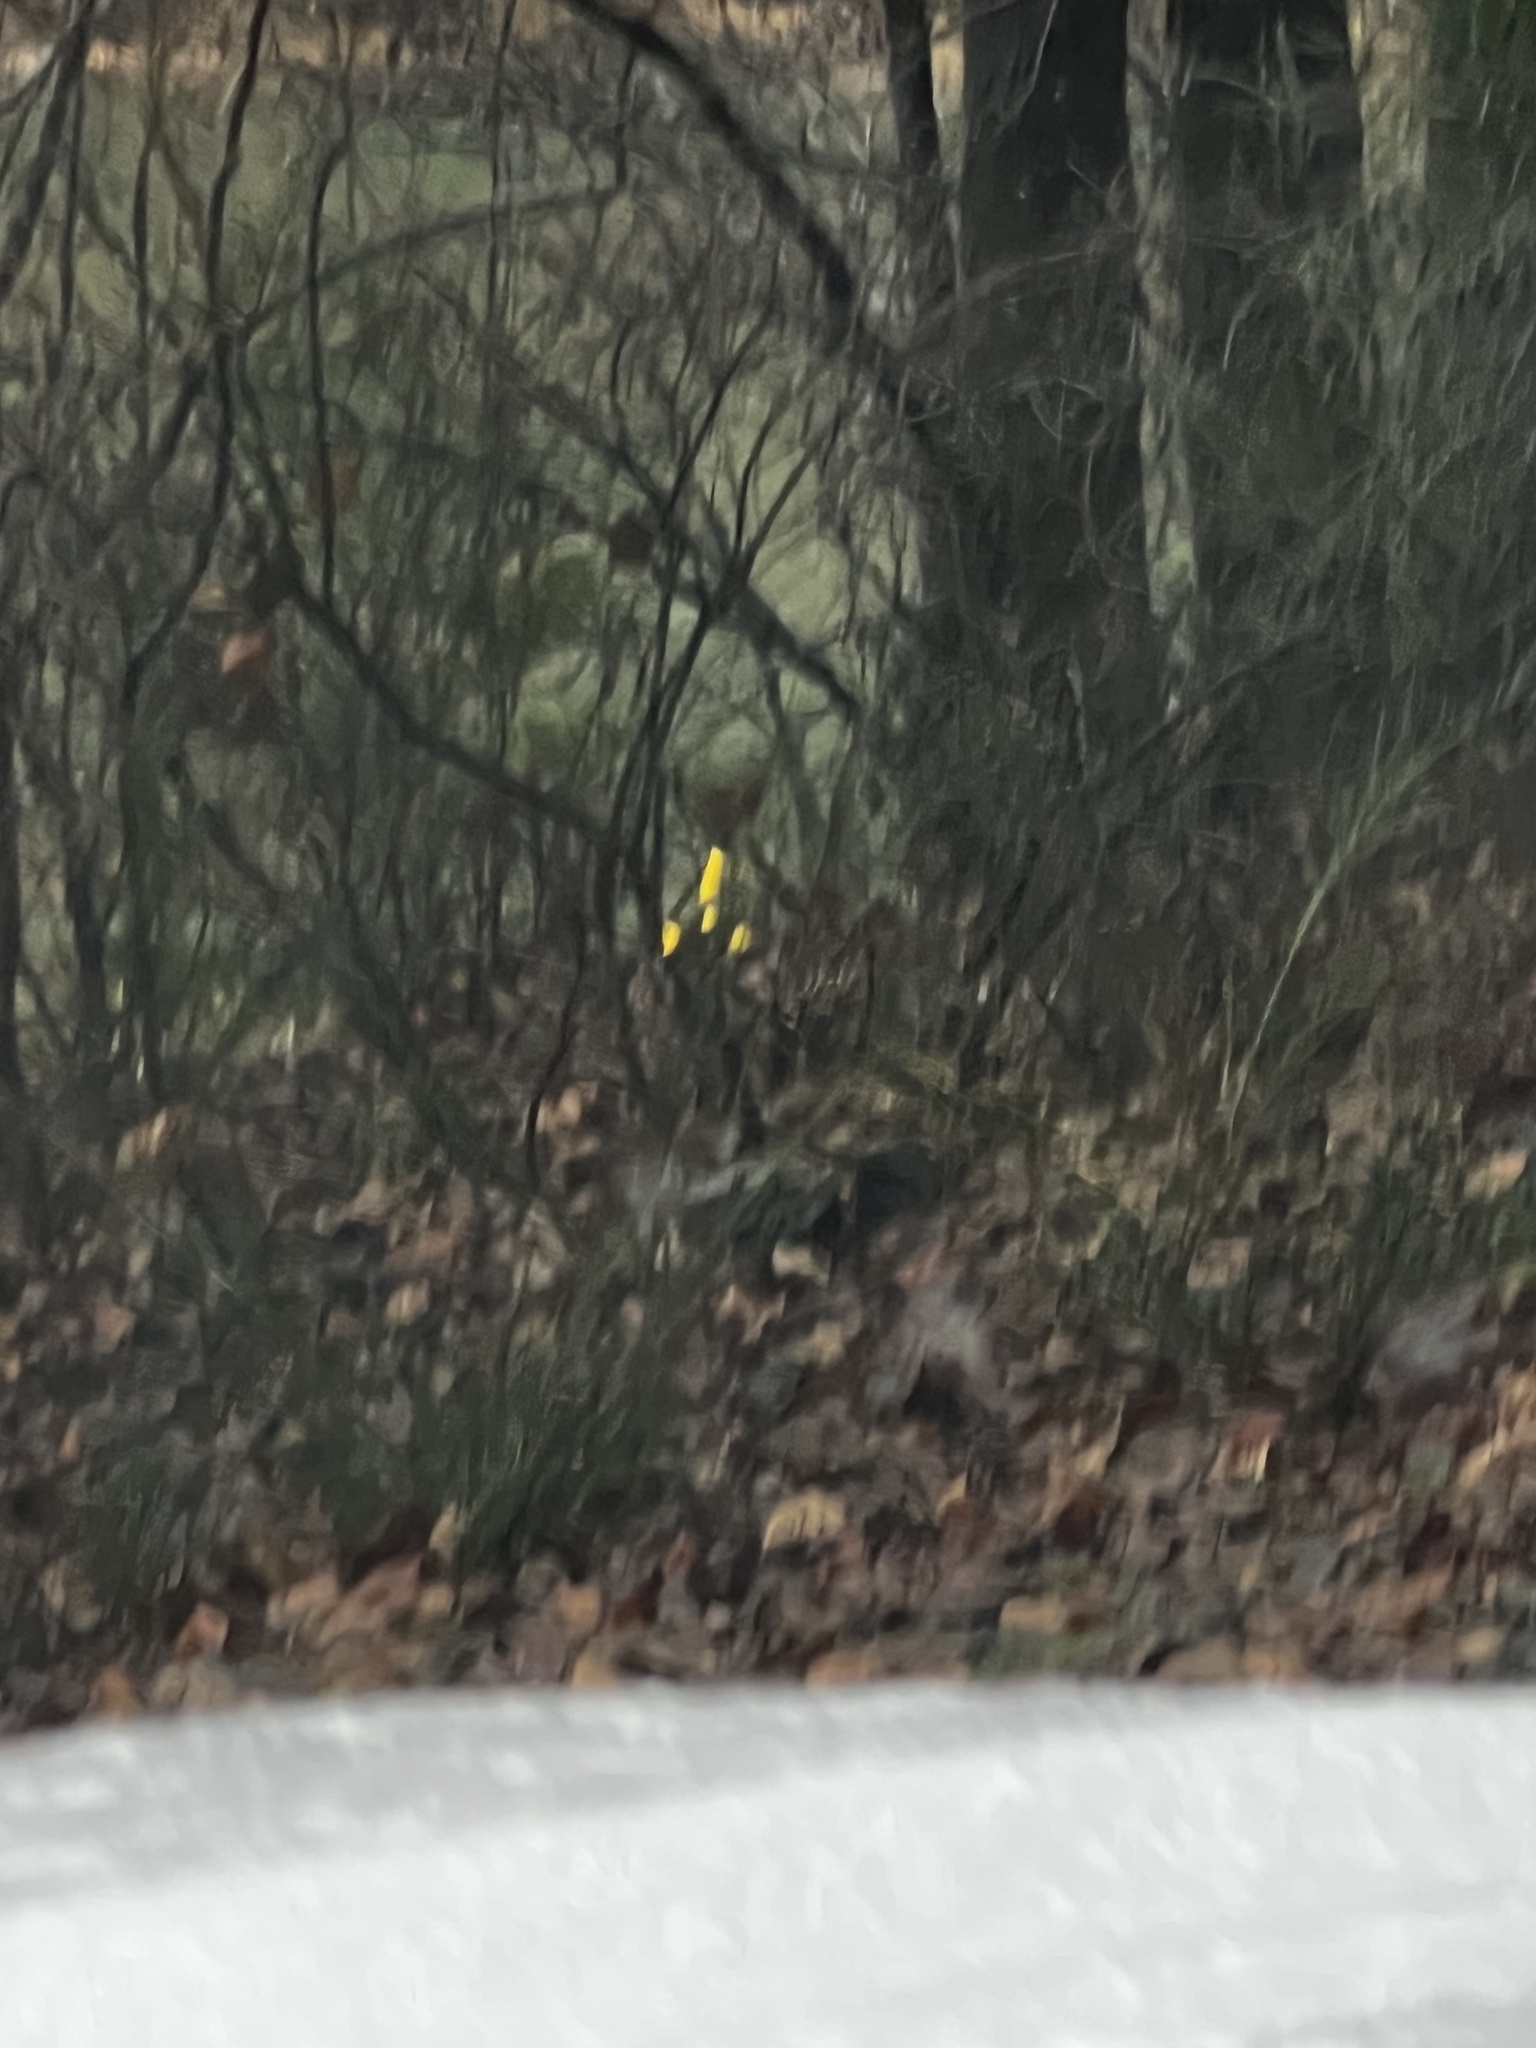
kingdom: Plantae
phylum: Tracheophyta
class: Magnoliopsida
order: Fabales
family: Fabaceae
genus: Cytisus
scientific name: Cytisus scoparius
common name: Scotch broom
